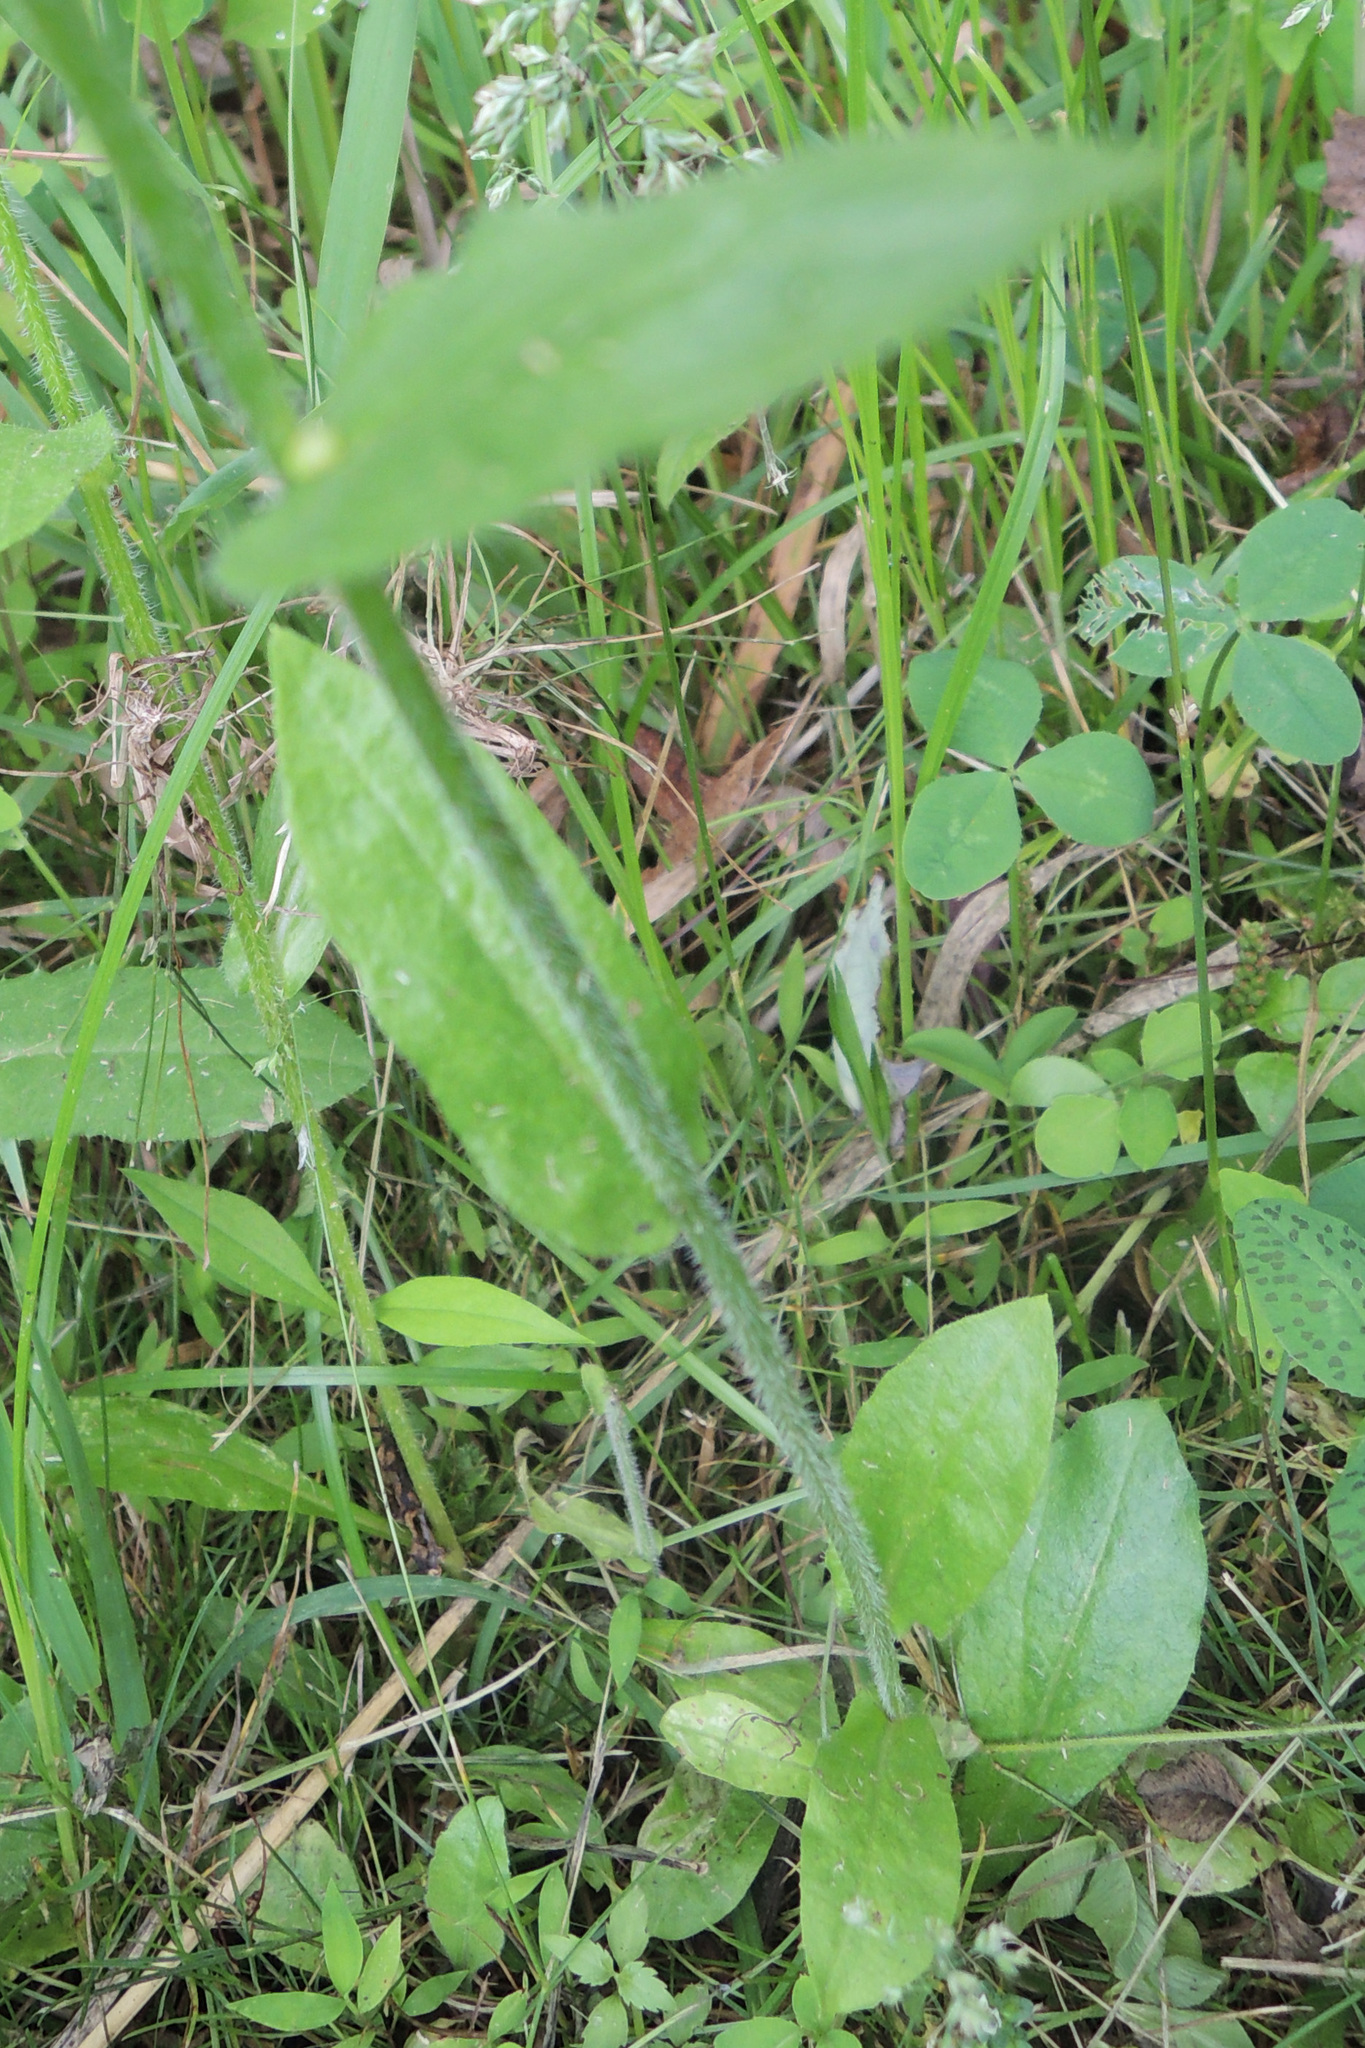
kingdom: Plantae
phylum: Tracheophyta
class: Magnoliopsida
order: Asterales
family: Asteraceae
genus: Erigeron
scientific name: Erigeron philadelphicus
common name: Robin's-plantain
